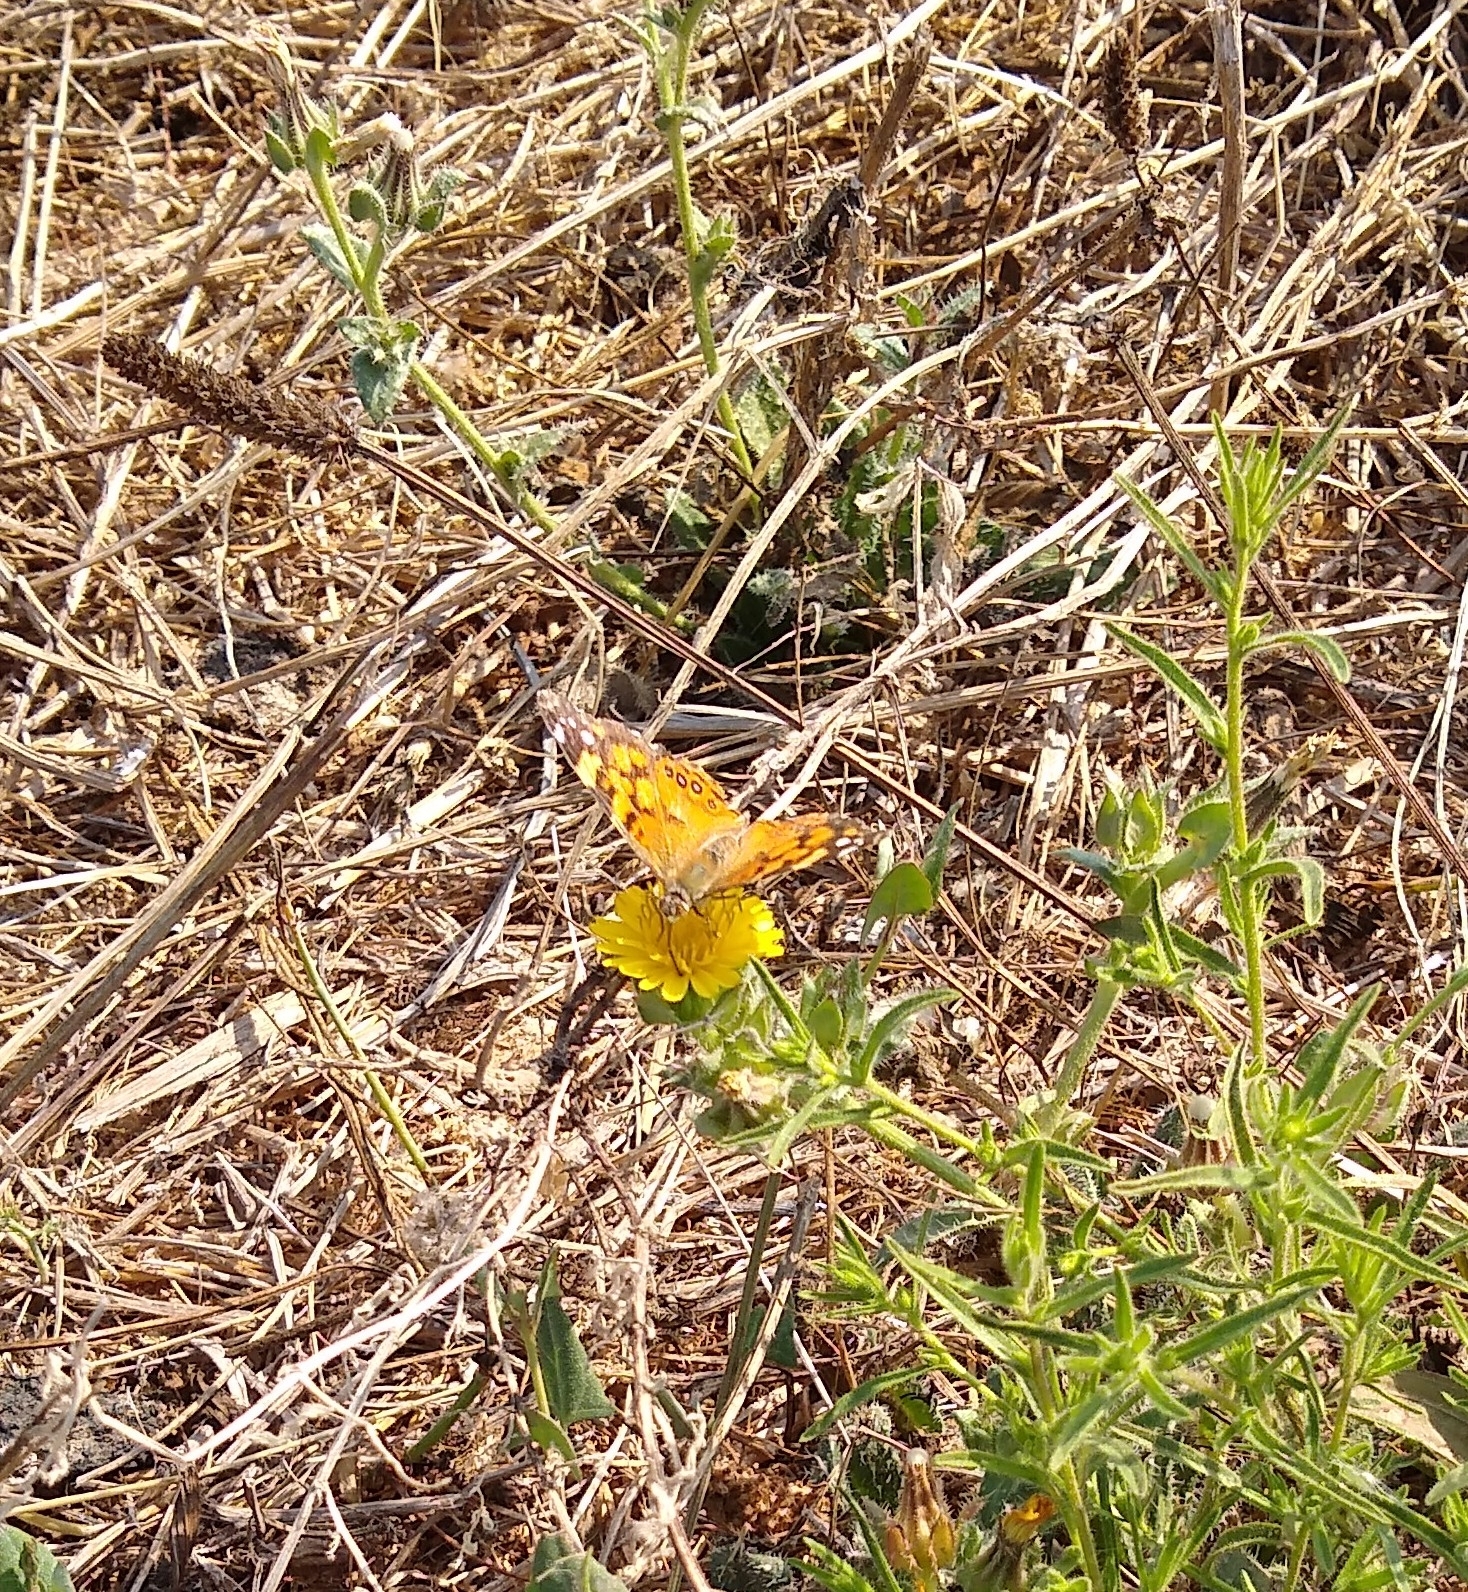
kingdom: Animalia
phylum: Arthropoda
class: Insecta
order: Lepidoptera
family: Nymphalidae
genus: Vanessa
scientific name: Vanessa annabella
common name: West coast lady
